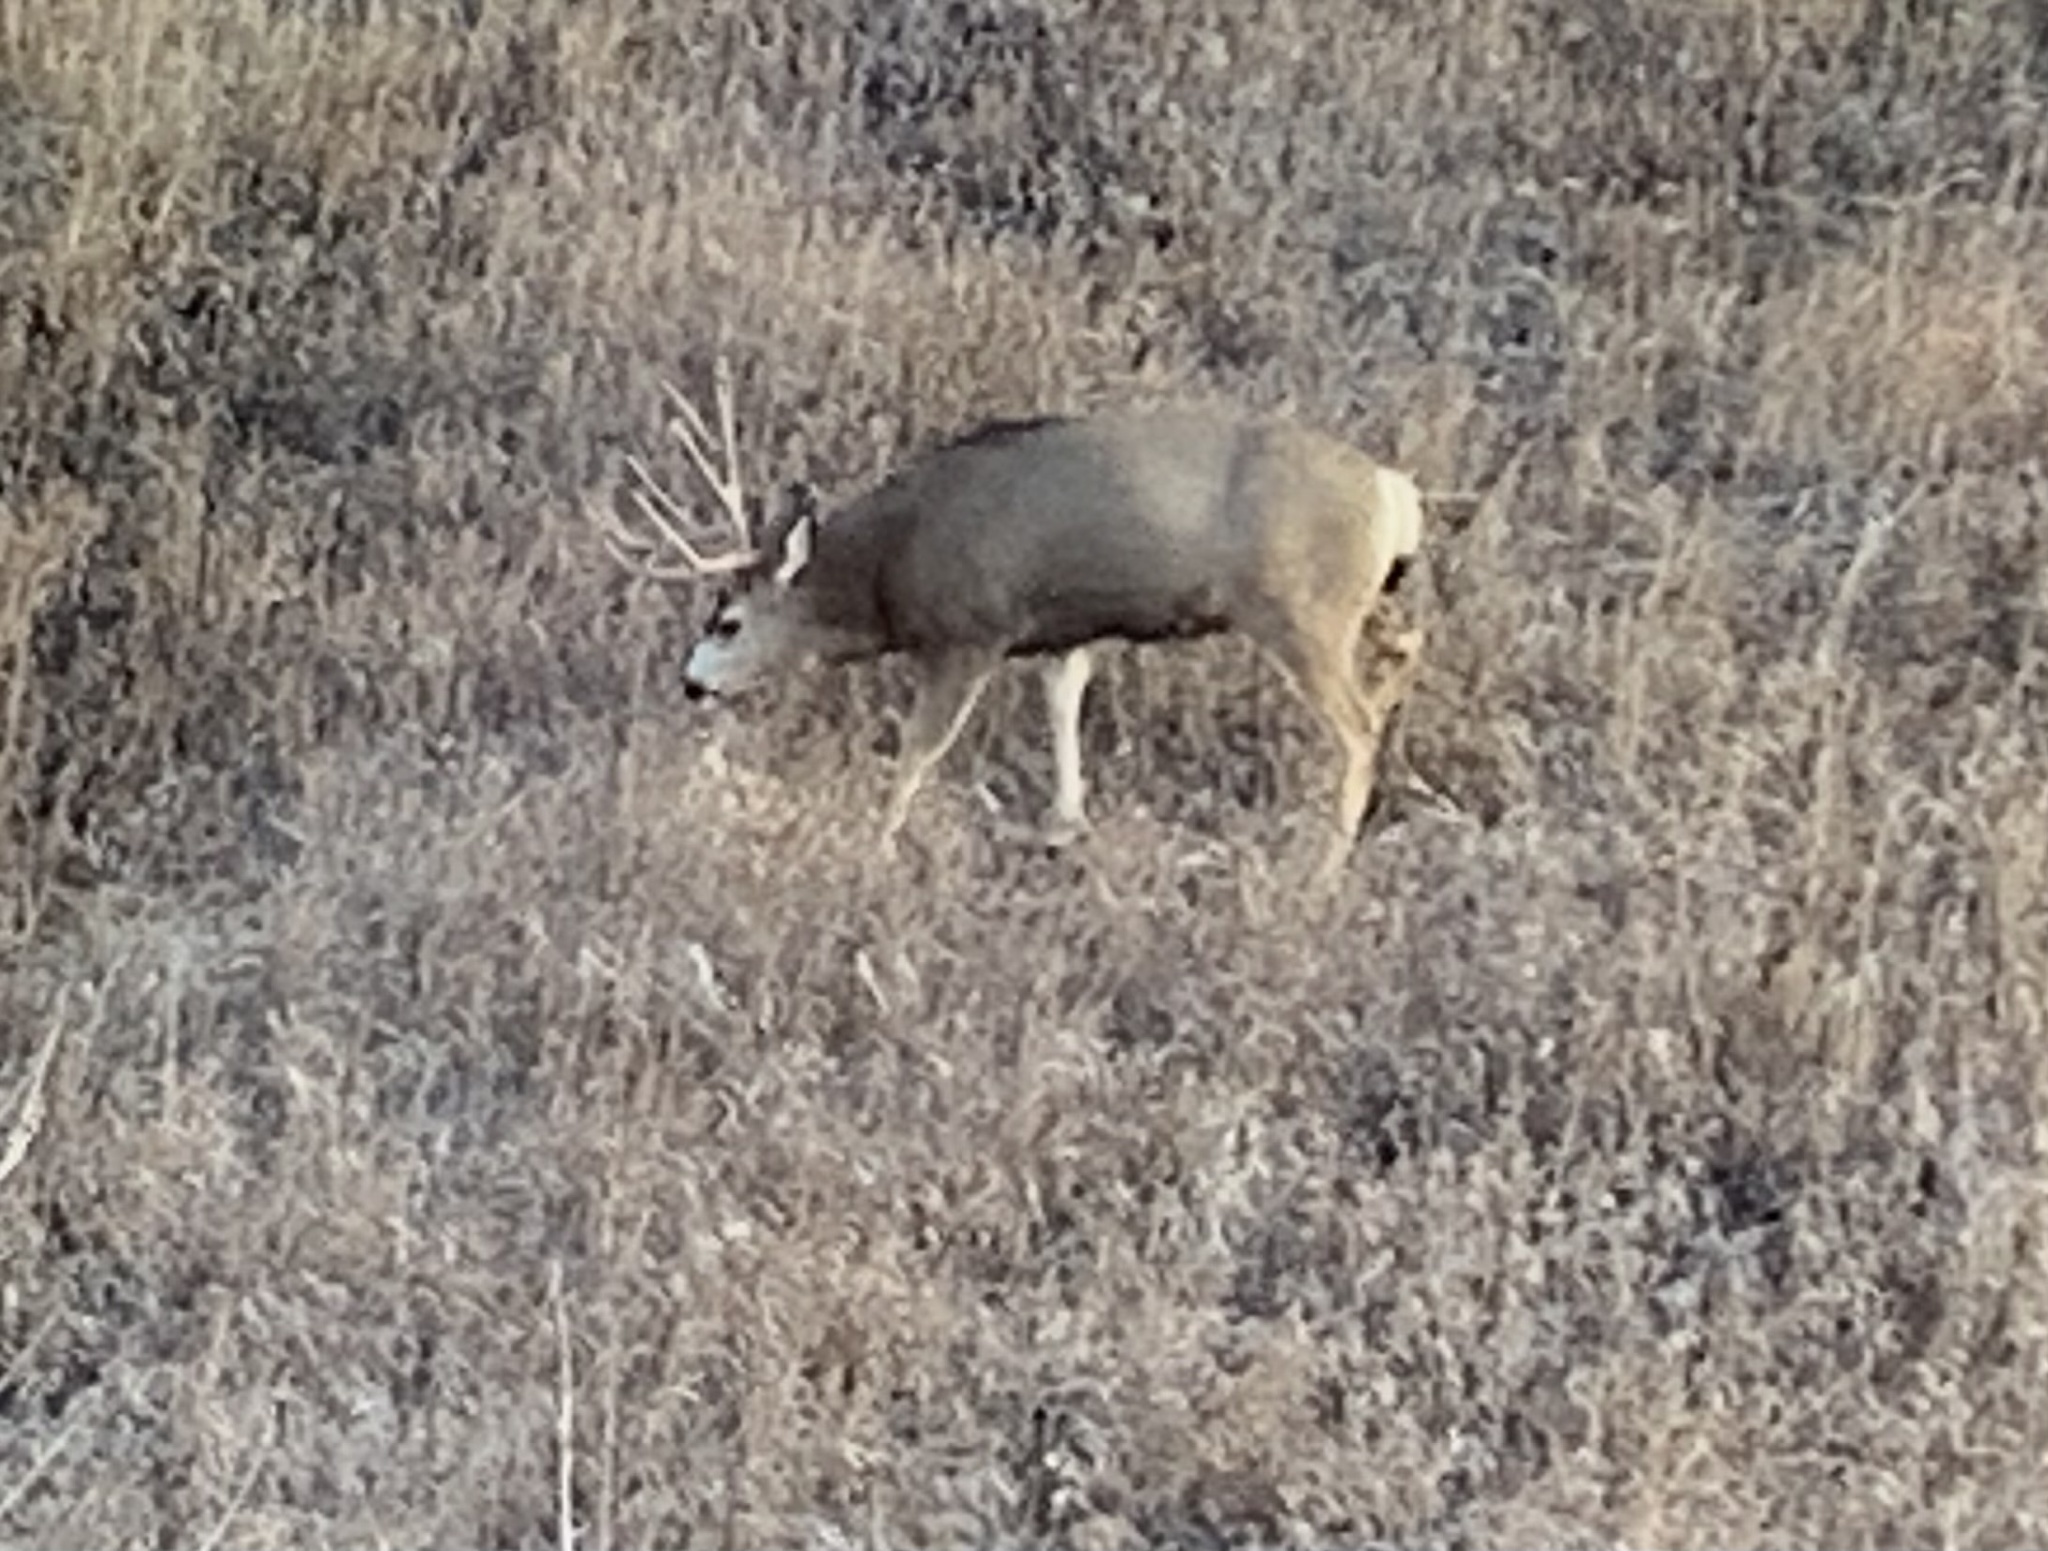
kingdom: Animalia
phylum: Chordata
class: Mammalia
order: Artiodactyla
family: Cervidae
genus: Odocoileus
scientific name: Odocoileus hemionus
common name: Mule deer
